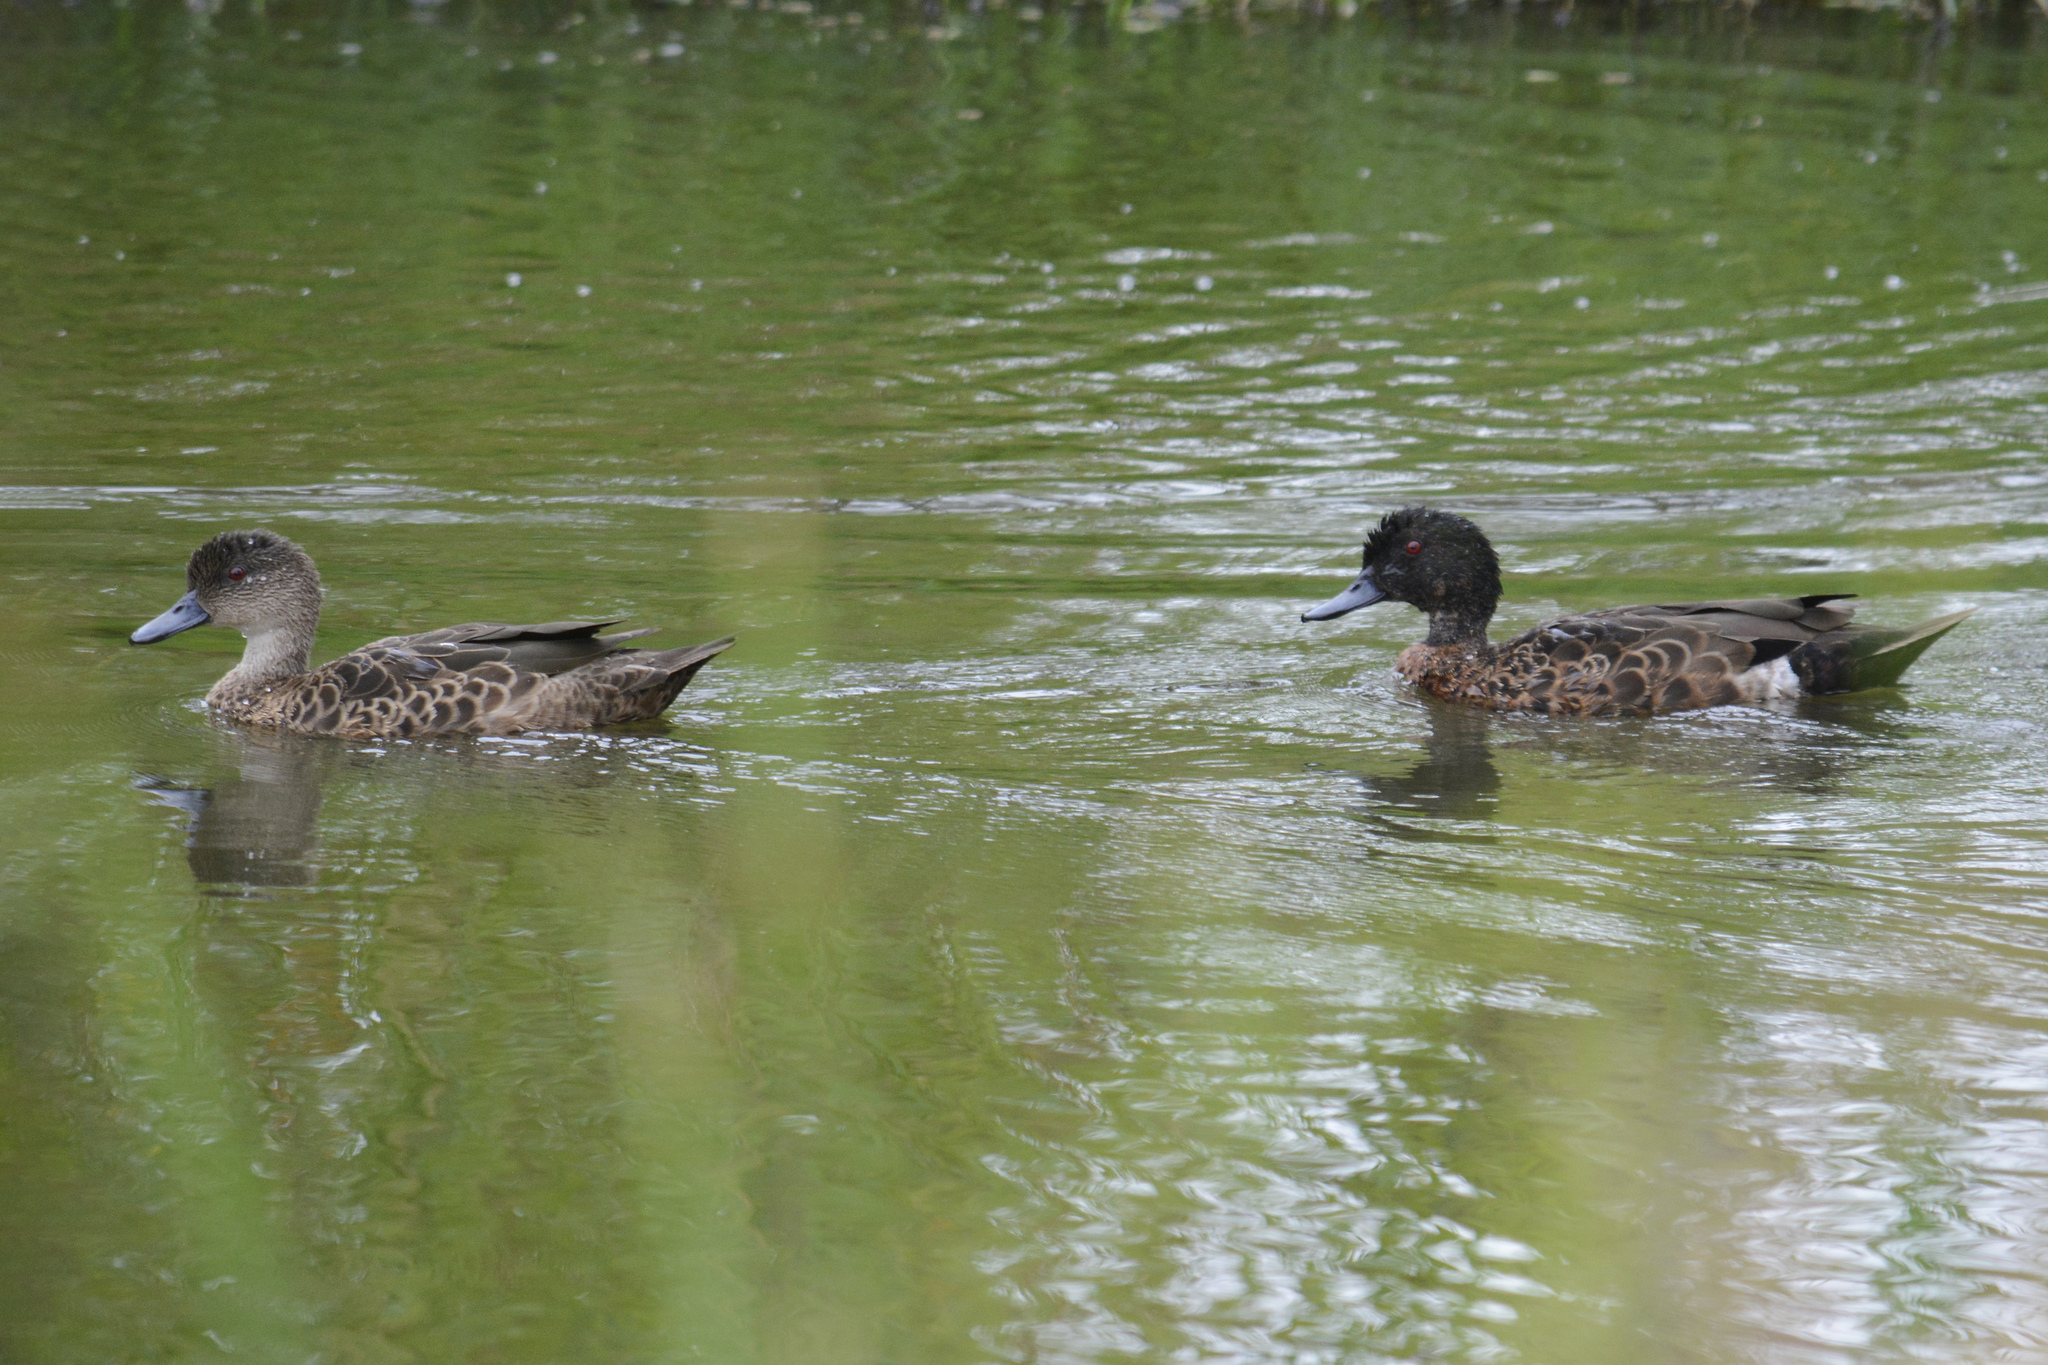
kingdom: Animalia
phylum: Chordata
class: Aves
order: Anseriformes
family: Anatidae
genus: Anas
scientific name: Anas castanea
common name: Chestnut teal
